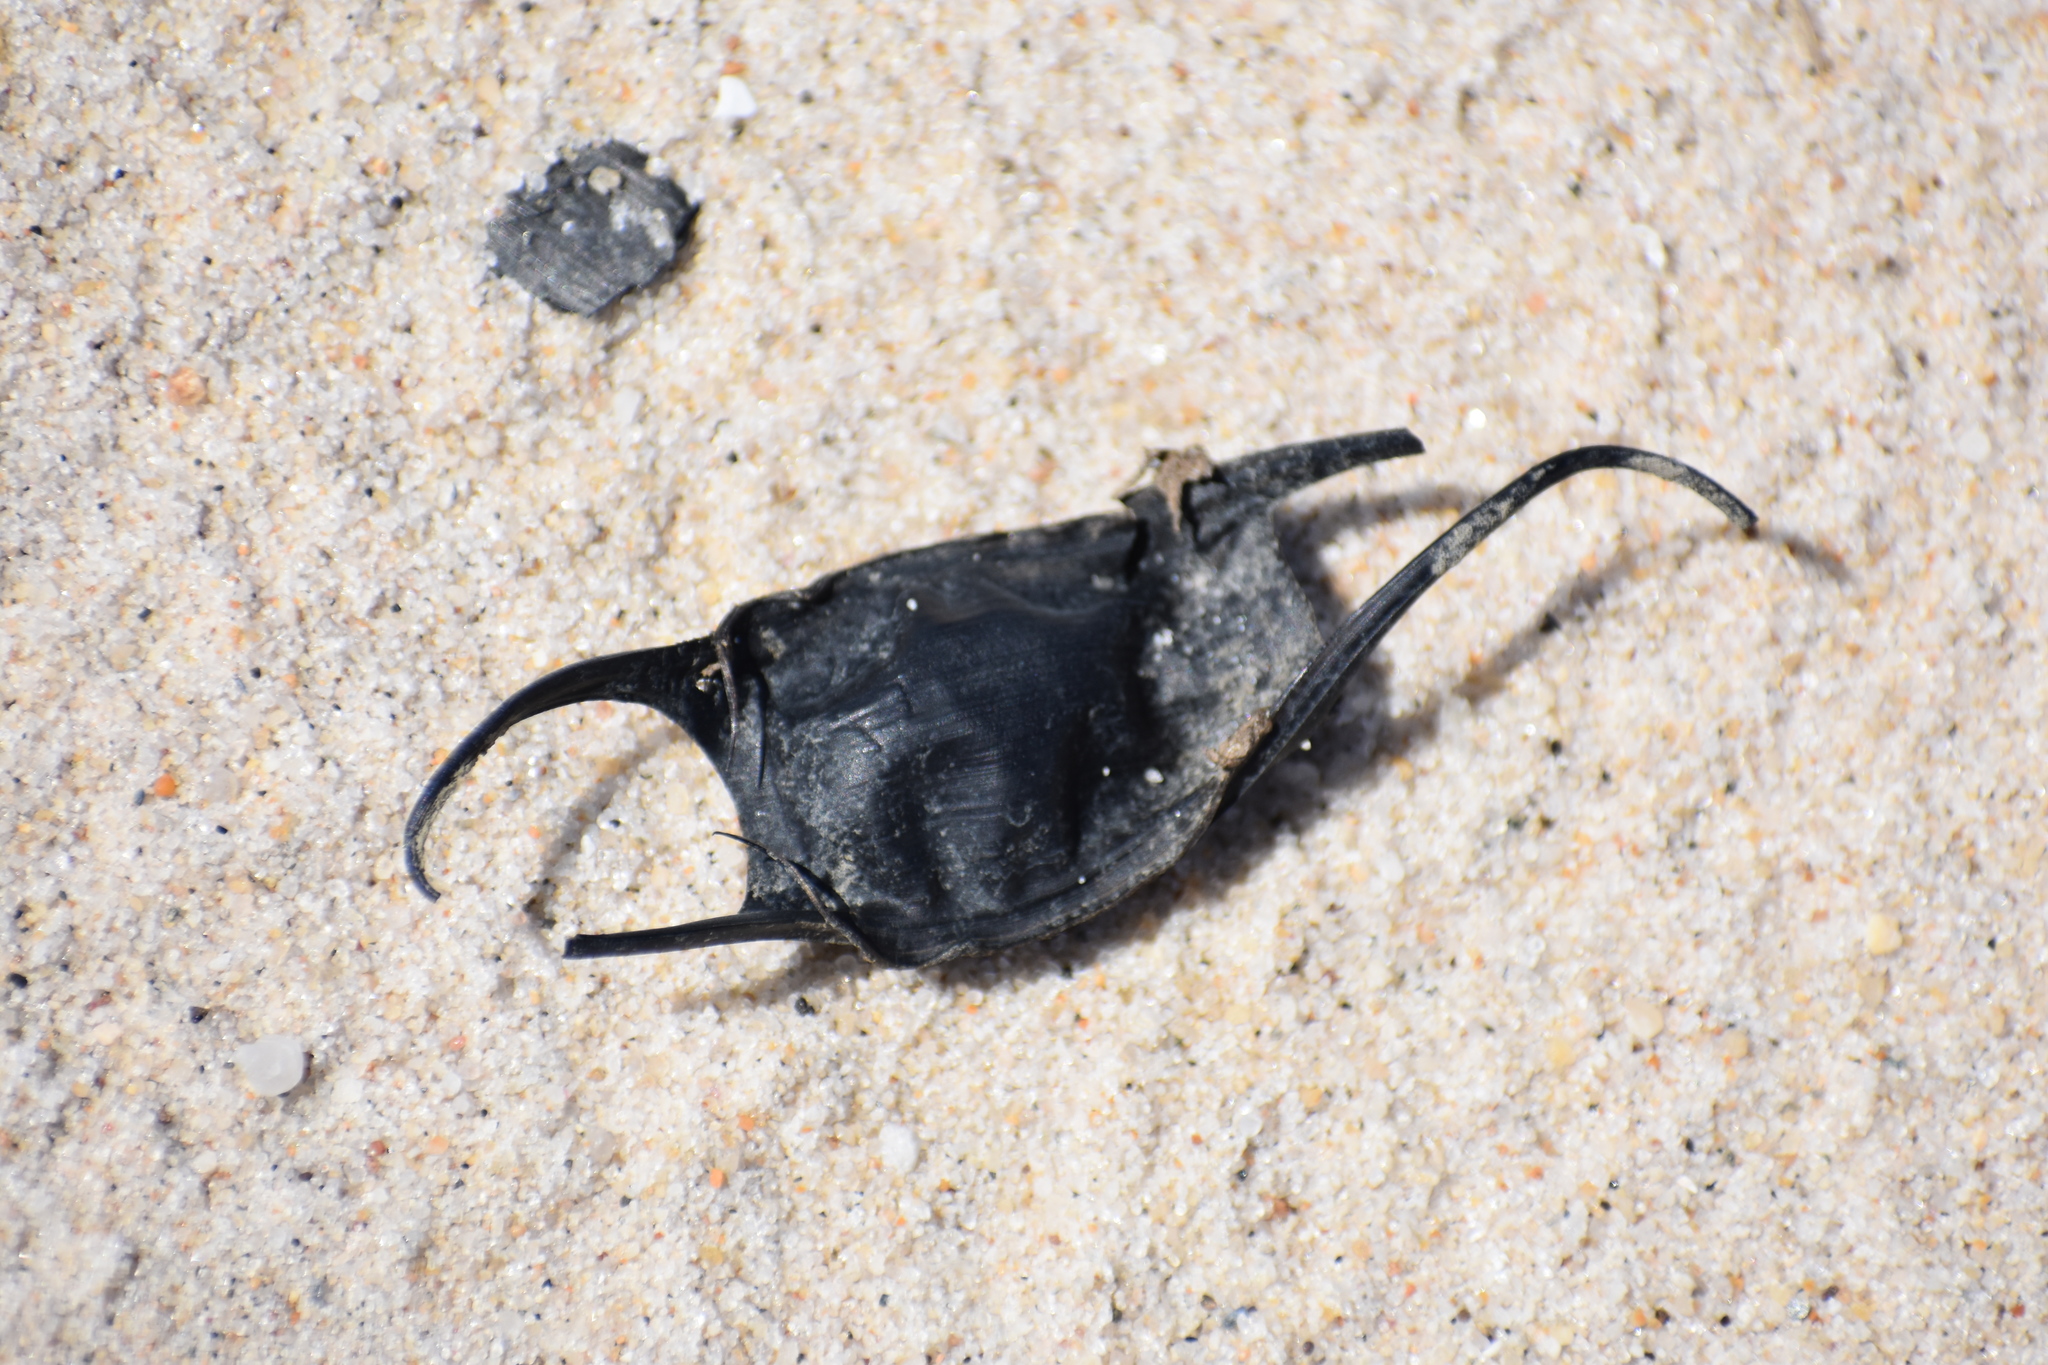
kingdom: Animalia
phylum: Chordata
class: Elasmobranchii
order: Rajiformes
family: Rajidae
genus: Leucoraja
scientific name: Leucoraja garmani
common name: Rosette skate
